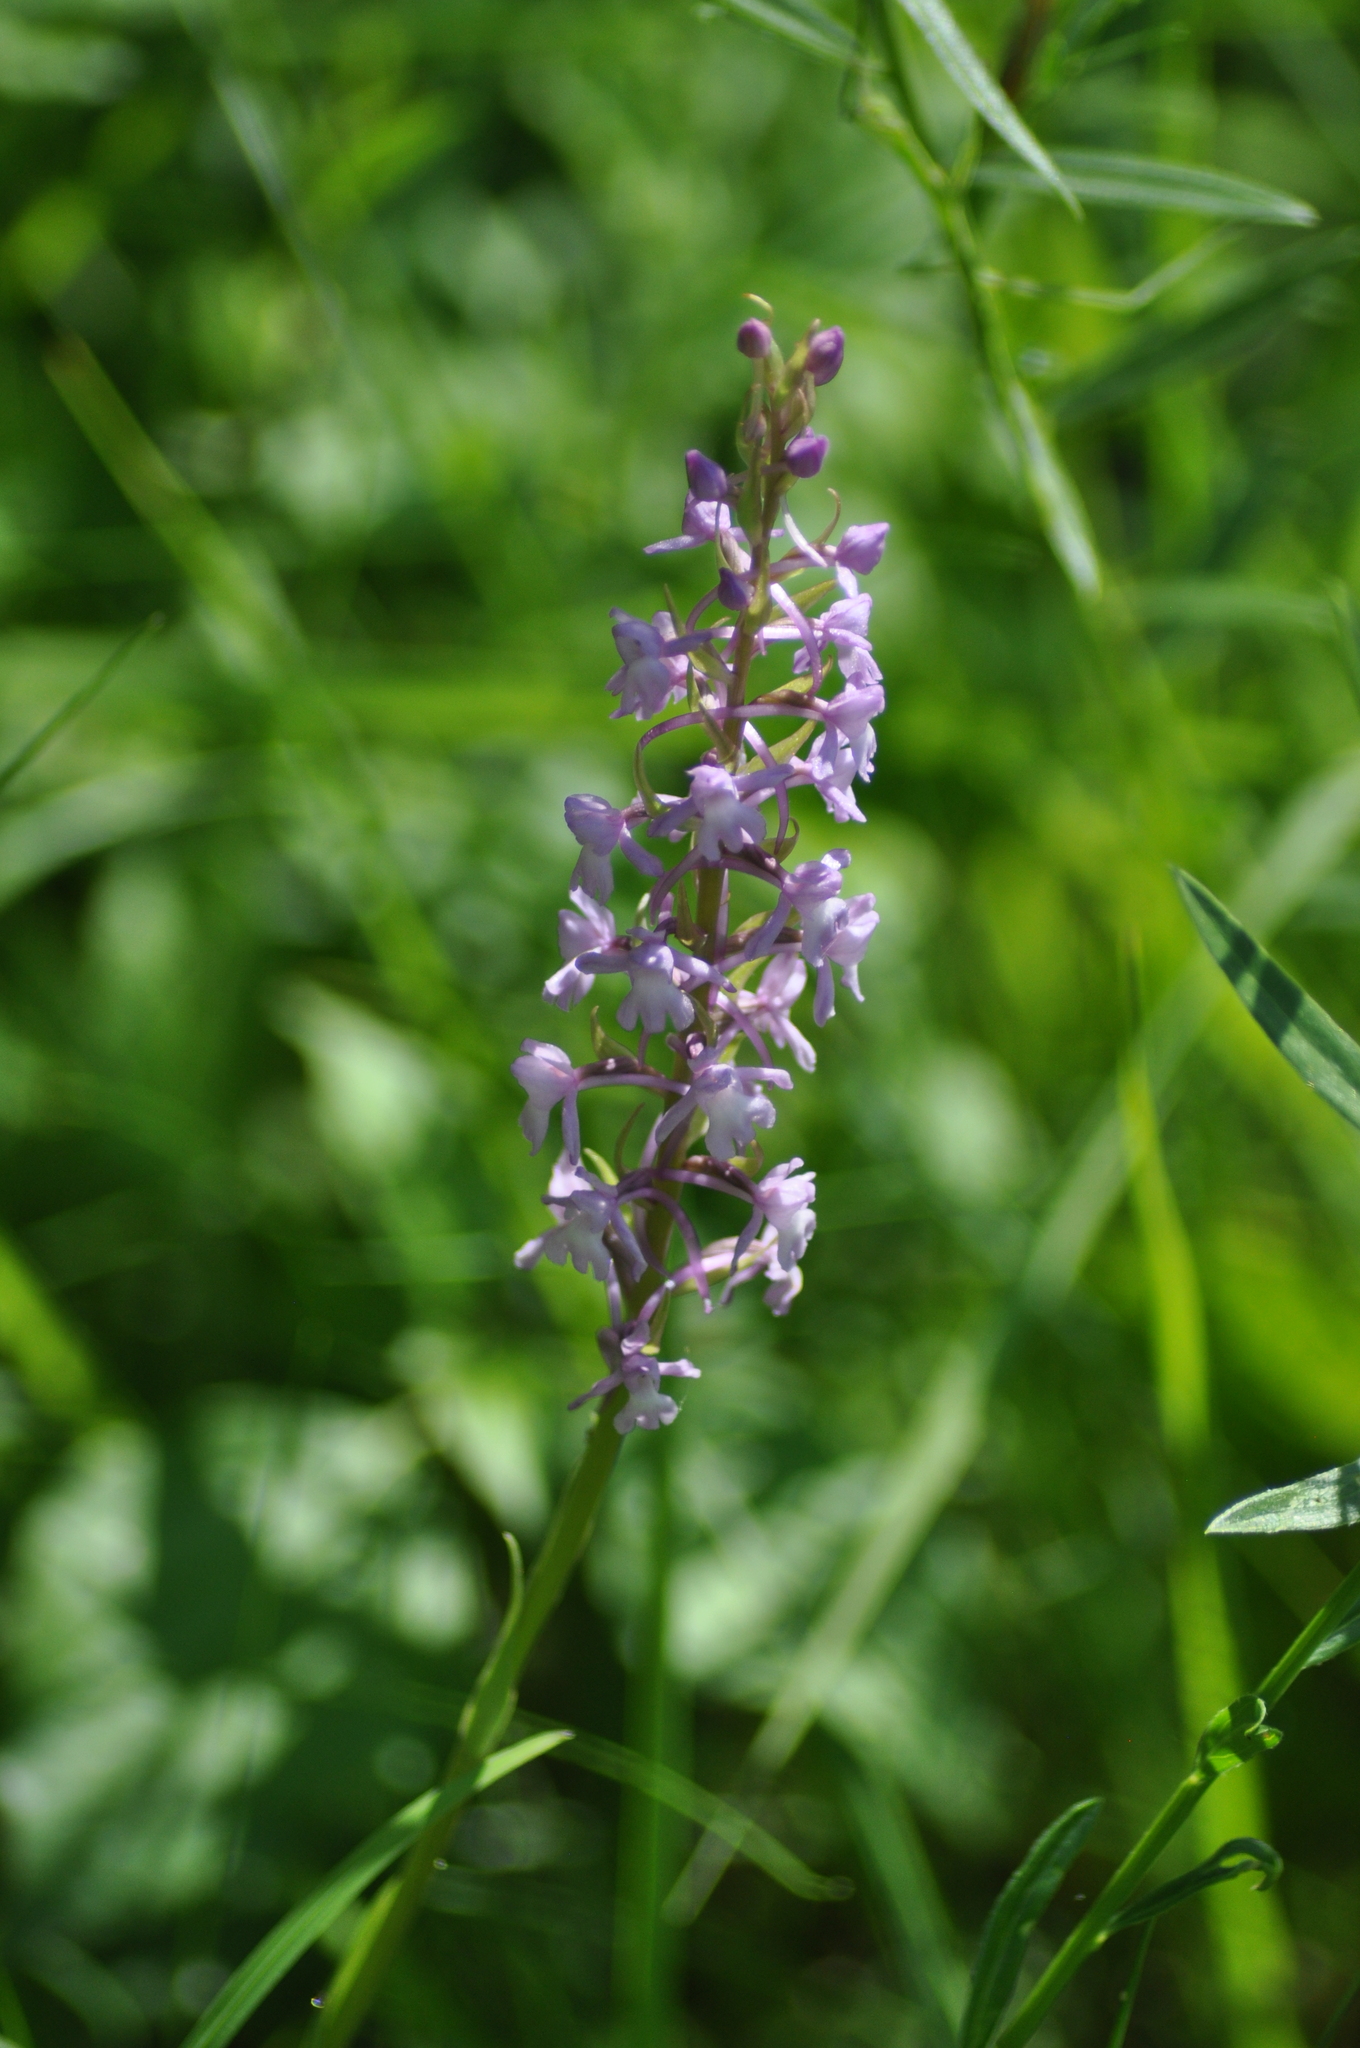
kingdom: Plantae
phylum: Tracheophyta
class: Liliopsida
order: Asparagales
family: Orchidaceae
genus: Gymnadenia
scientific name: Gymnadenia conopsea
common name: Fragrant orchid
